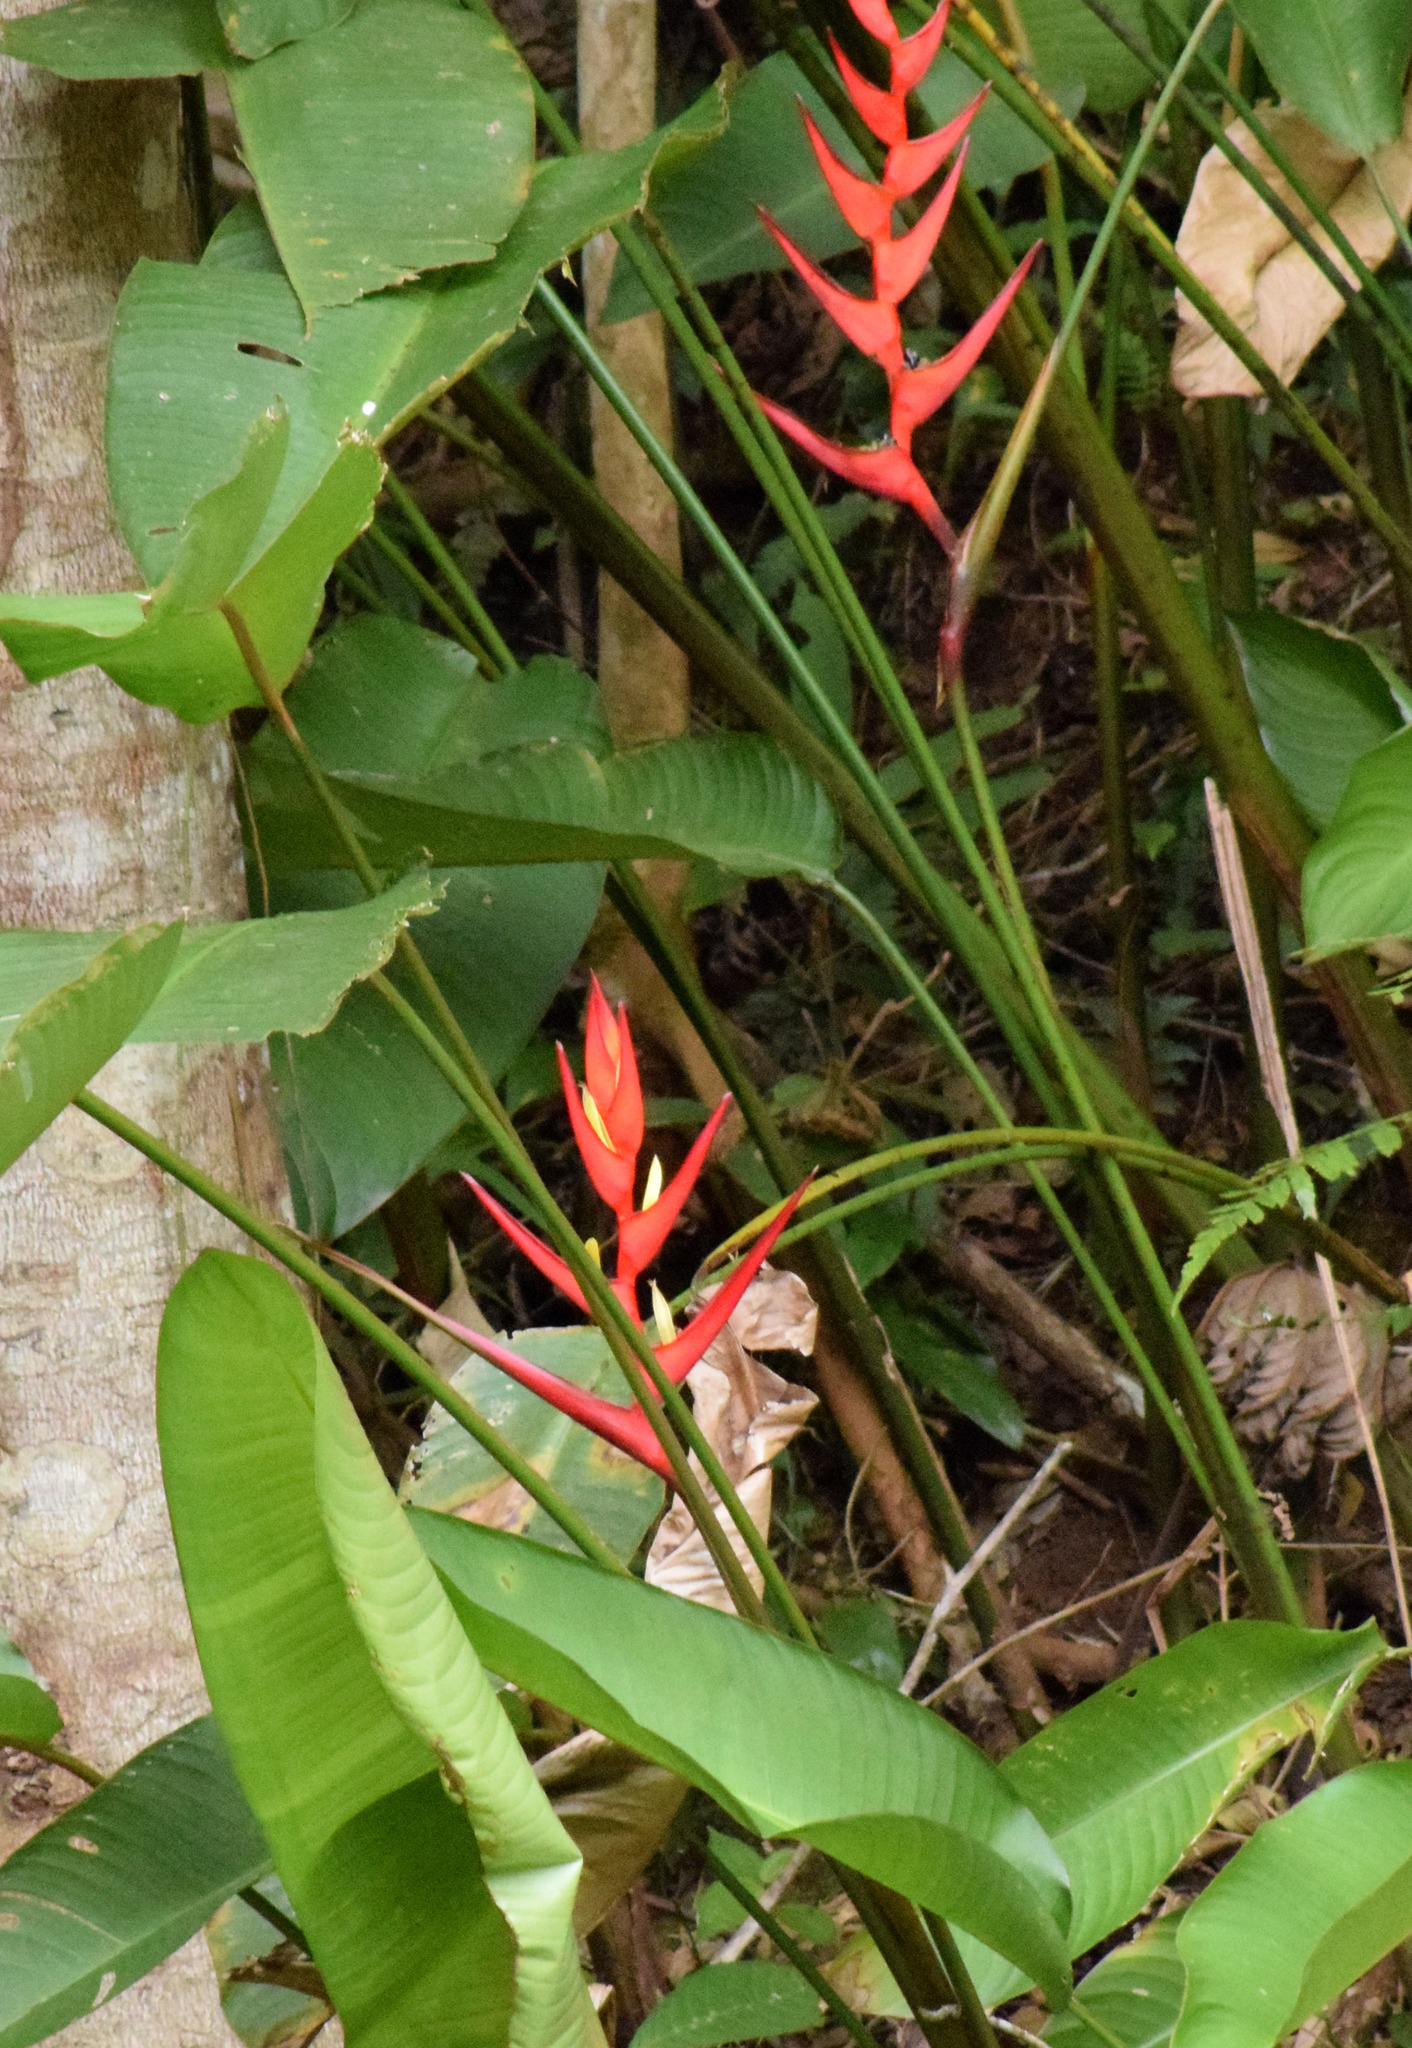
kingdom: Plantae
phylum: Tracheophyta
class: Liliopsida
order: Zingiberales
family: Heliconiaceae
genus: Heliconia
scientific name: Heliconia farinosa
